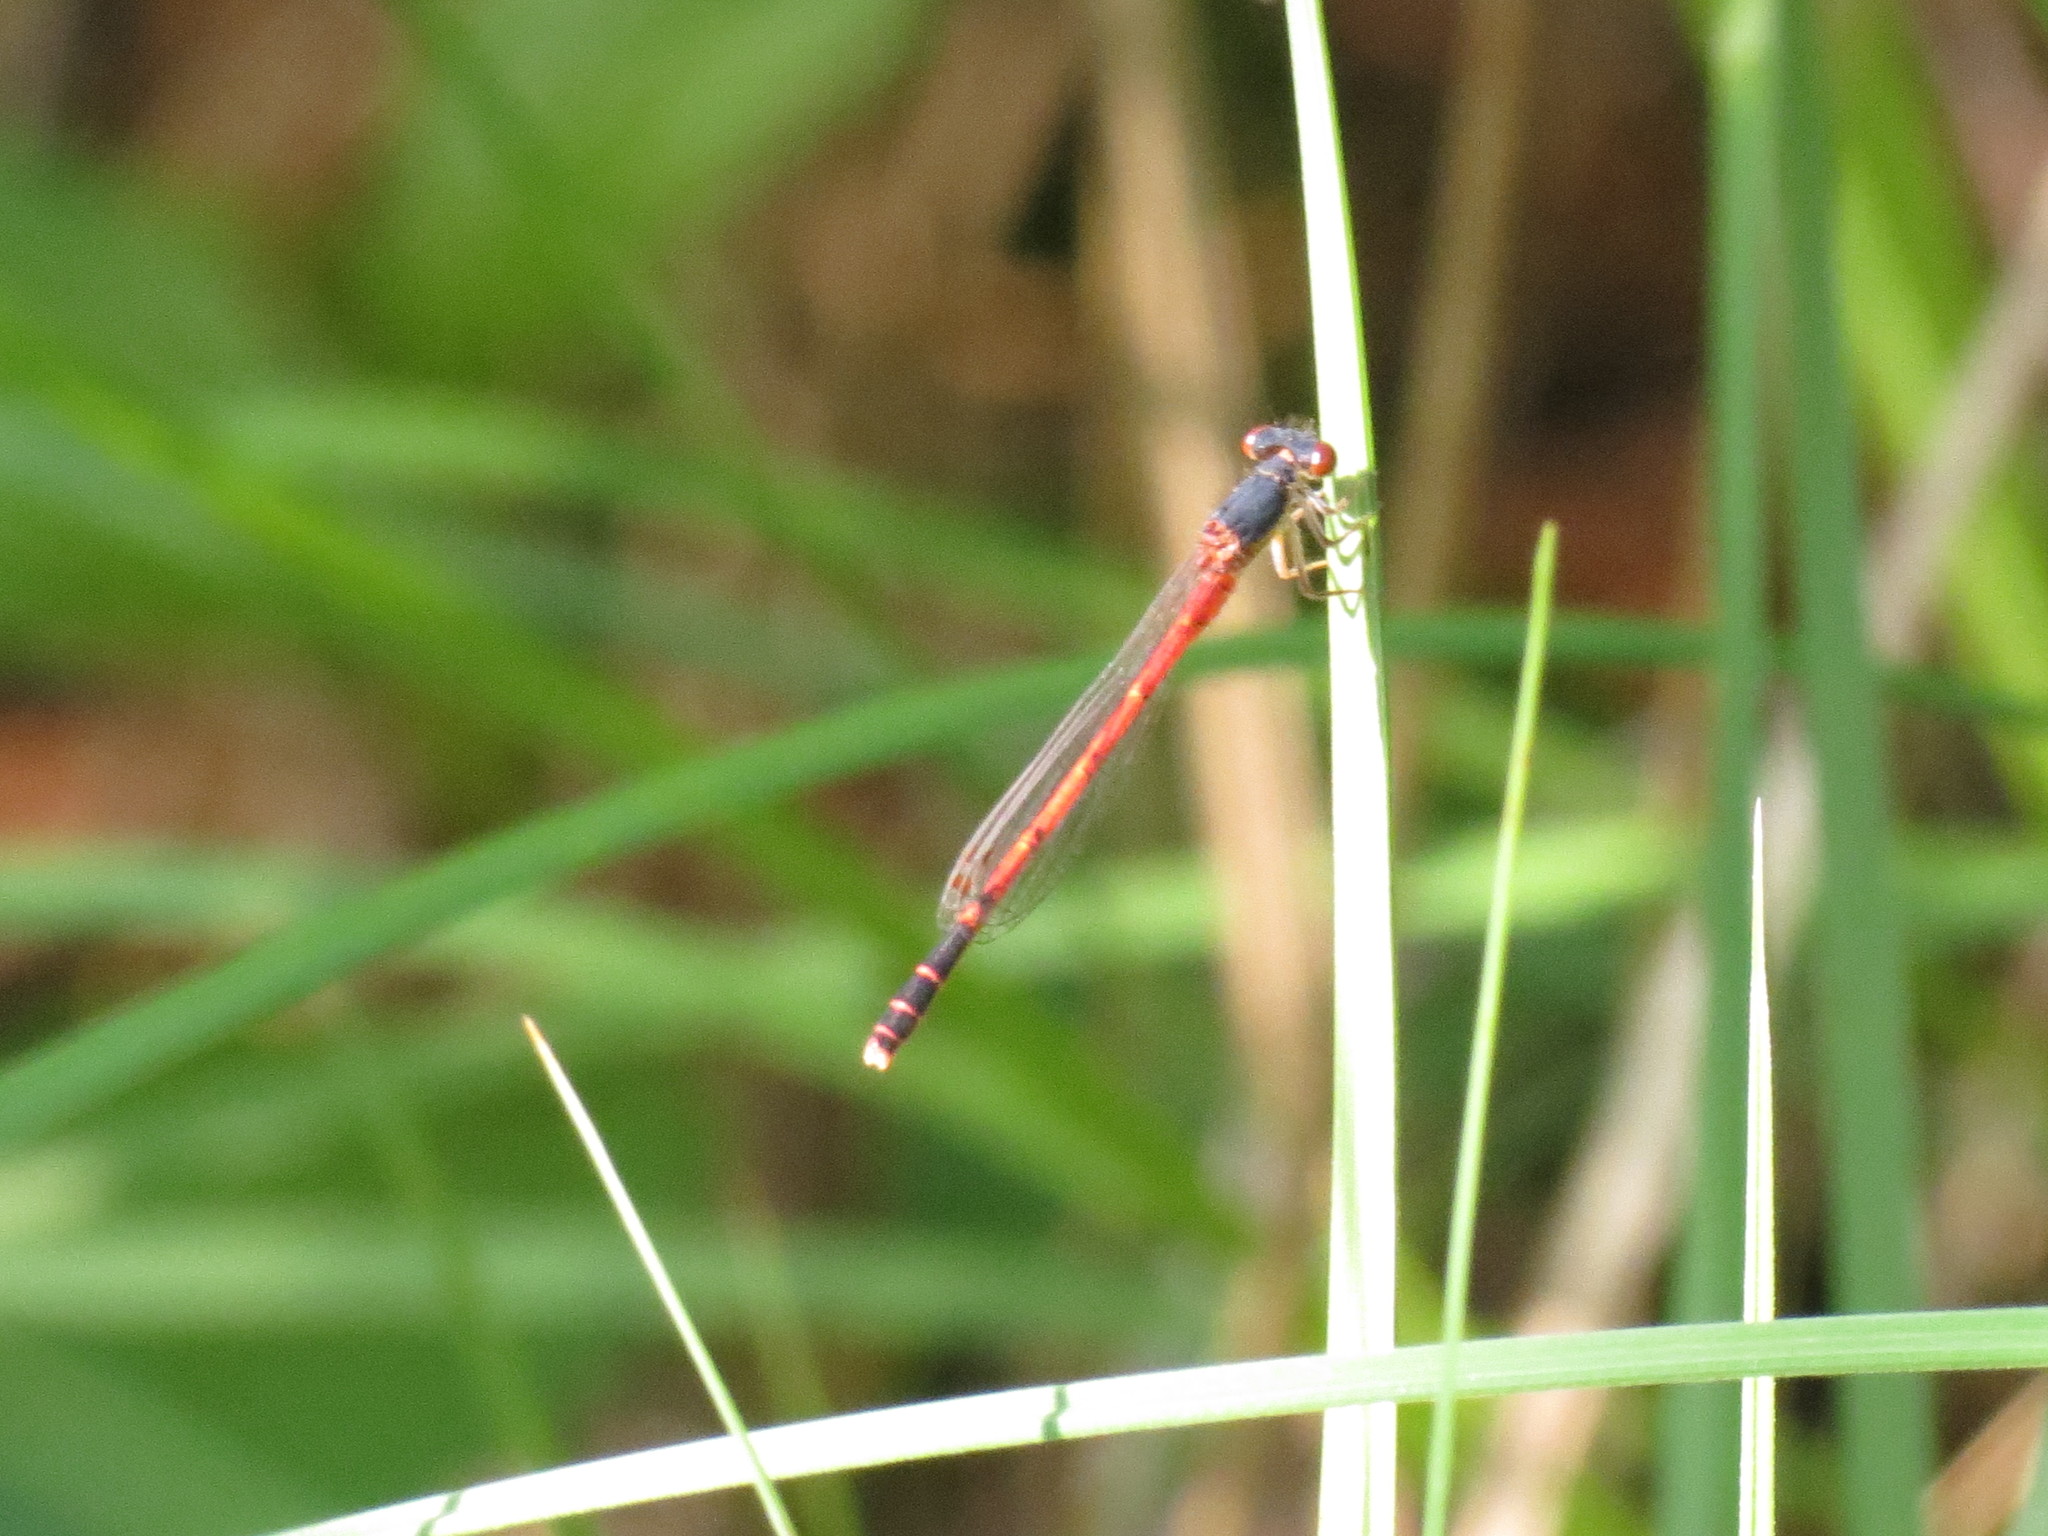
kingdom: Animalia
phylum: Arthropoda
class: Insecta
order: Odonata
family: Coenagrionidae
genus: Amphiagrion
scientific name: Amphiagrion saucium
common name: Eastern red damsel
